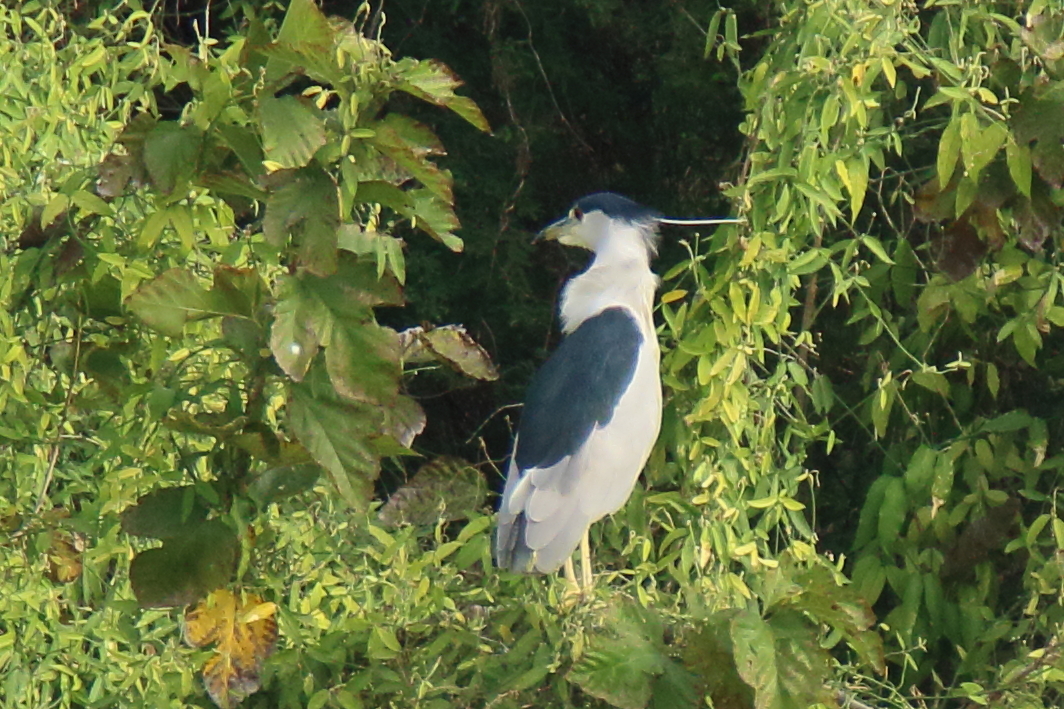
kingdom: Animalia
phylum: Chordata
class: Aves
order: Pelecaniformes
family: Ardeidae
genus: Nycticorax
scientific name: Nycticorax nycticorax
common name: Black-crowned night heron
